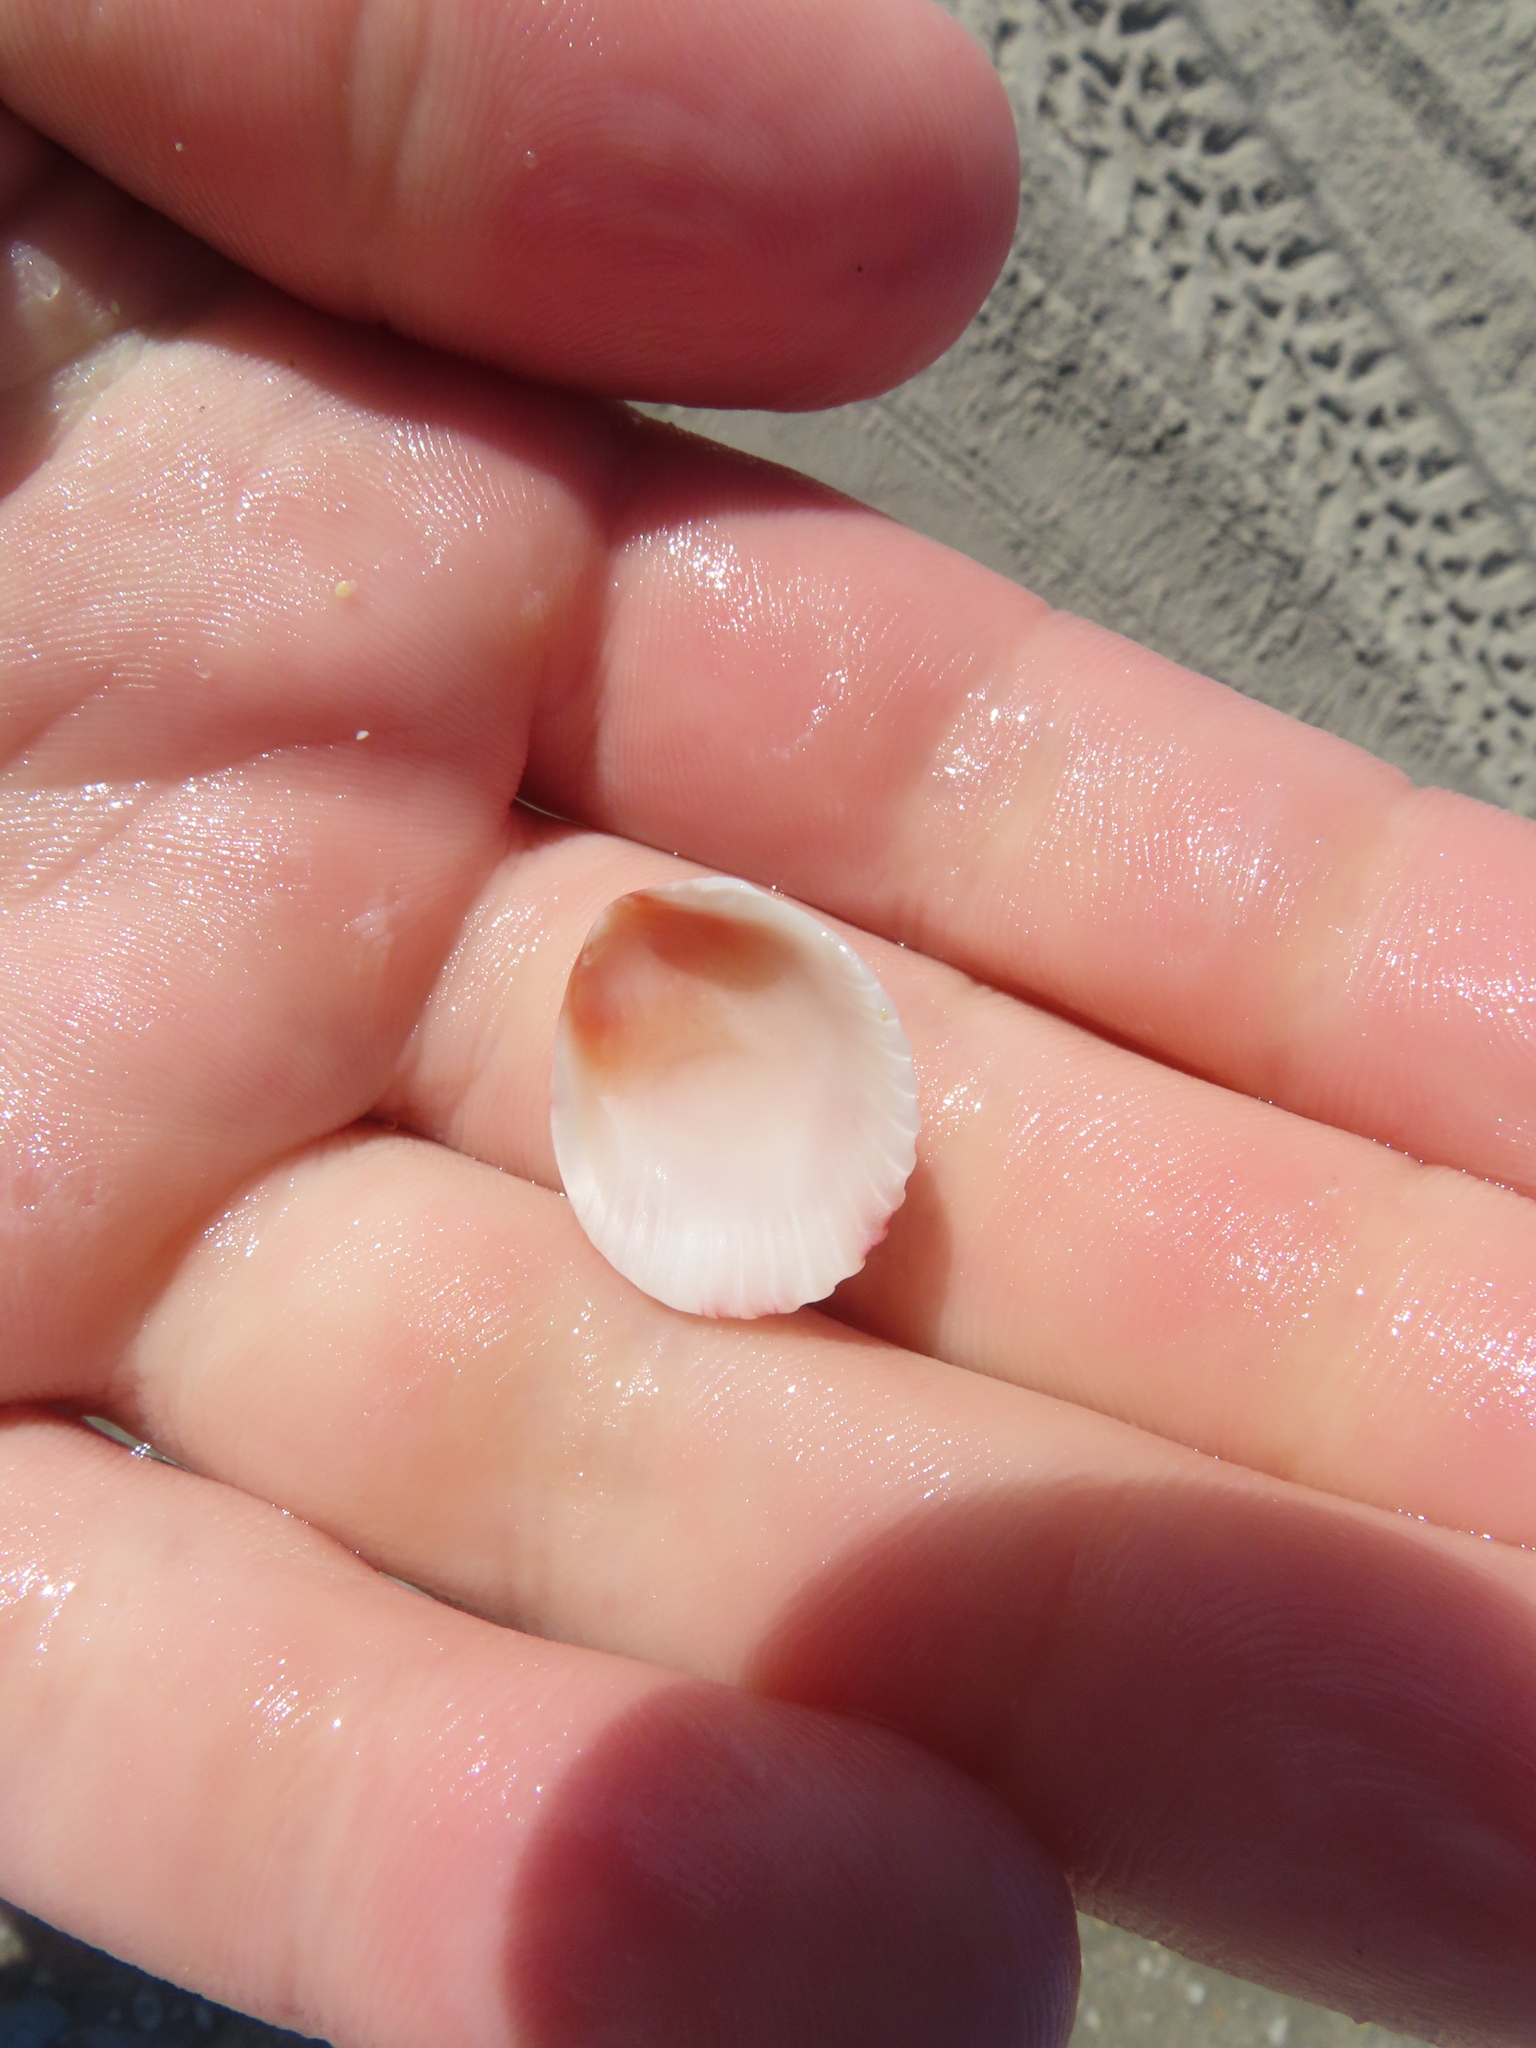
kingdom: Animalia
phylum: Mollusca
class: Bivalvia
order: Pectinida
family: Pectinidae
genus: Argopecten
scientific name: Argopecten gibbus
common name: Atlantic calico scallop
